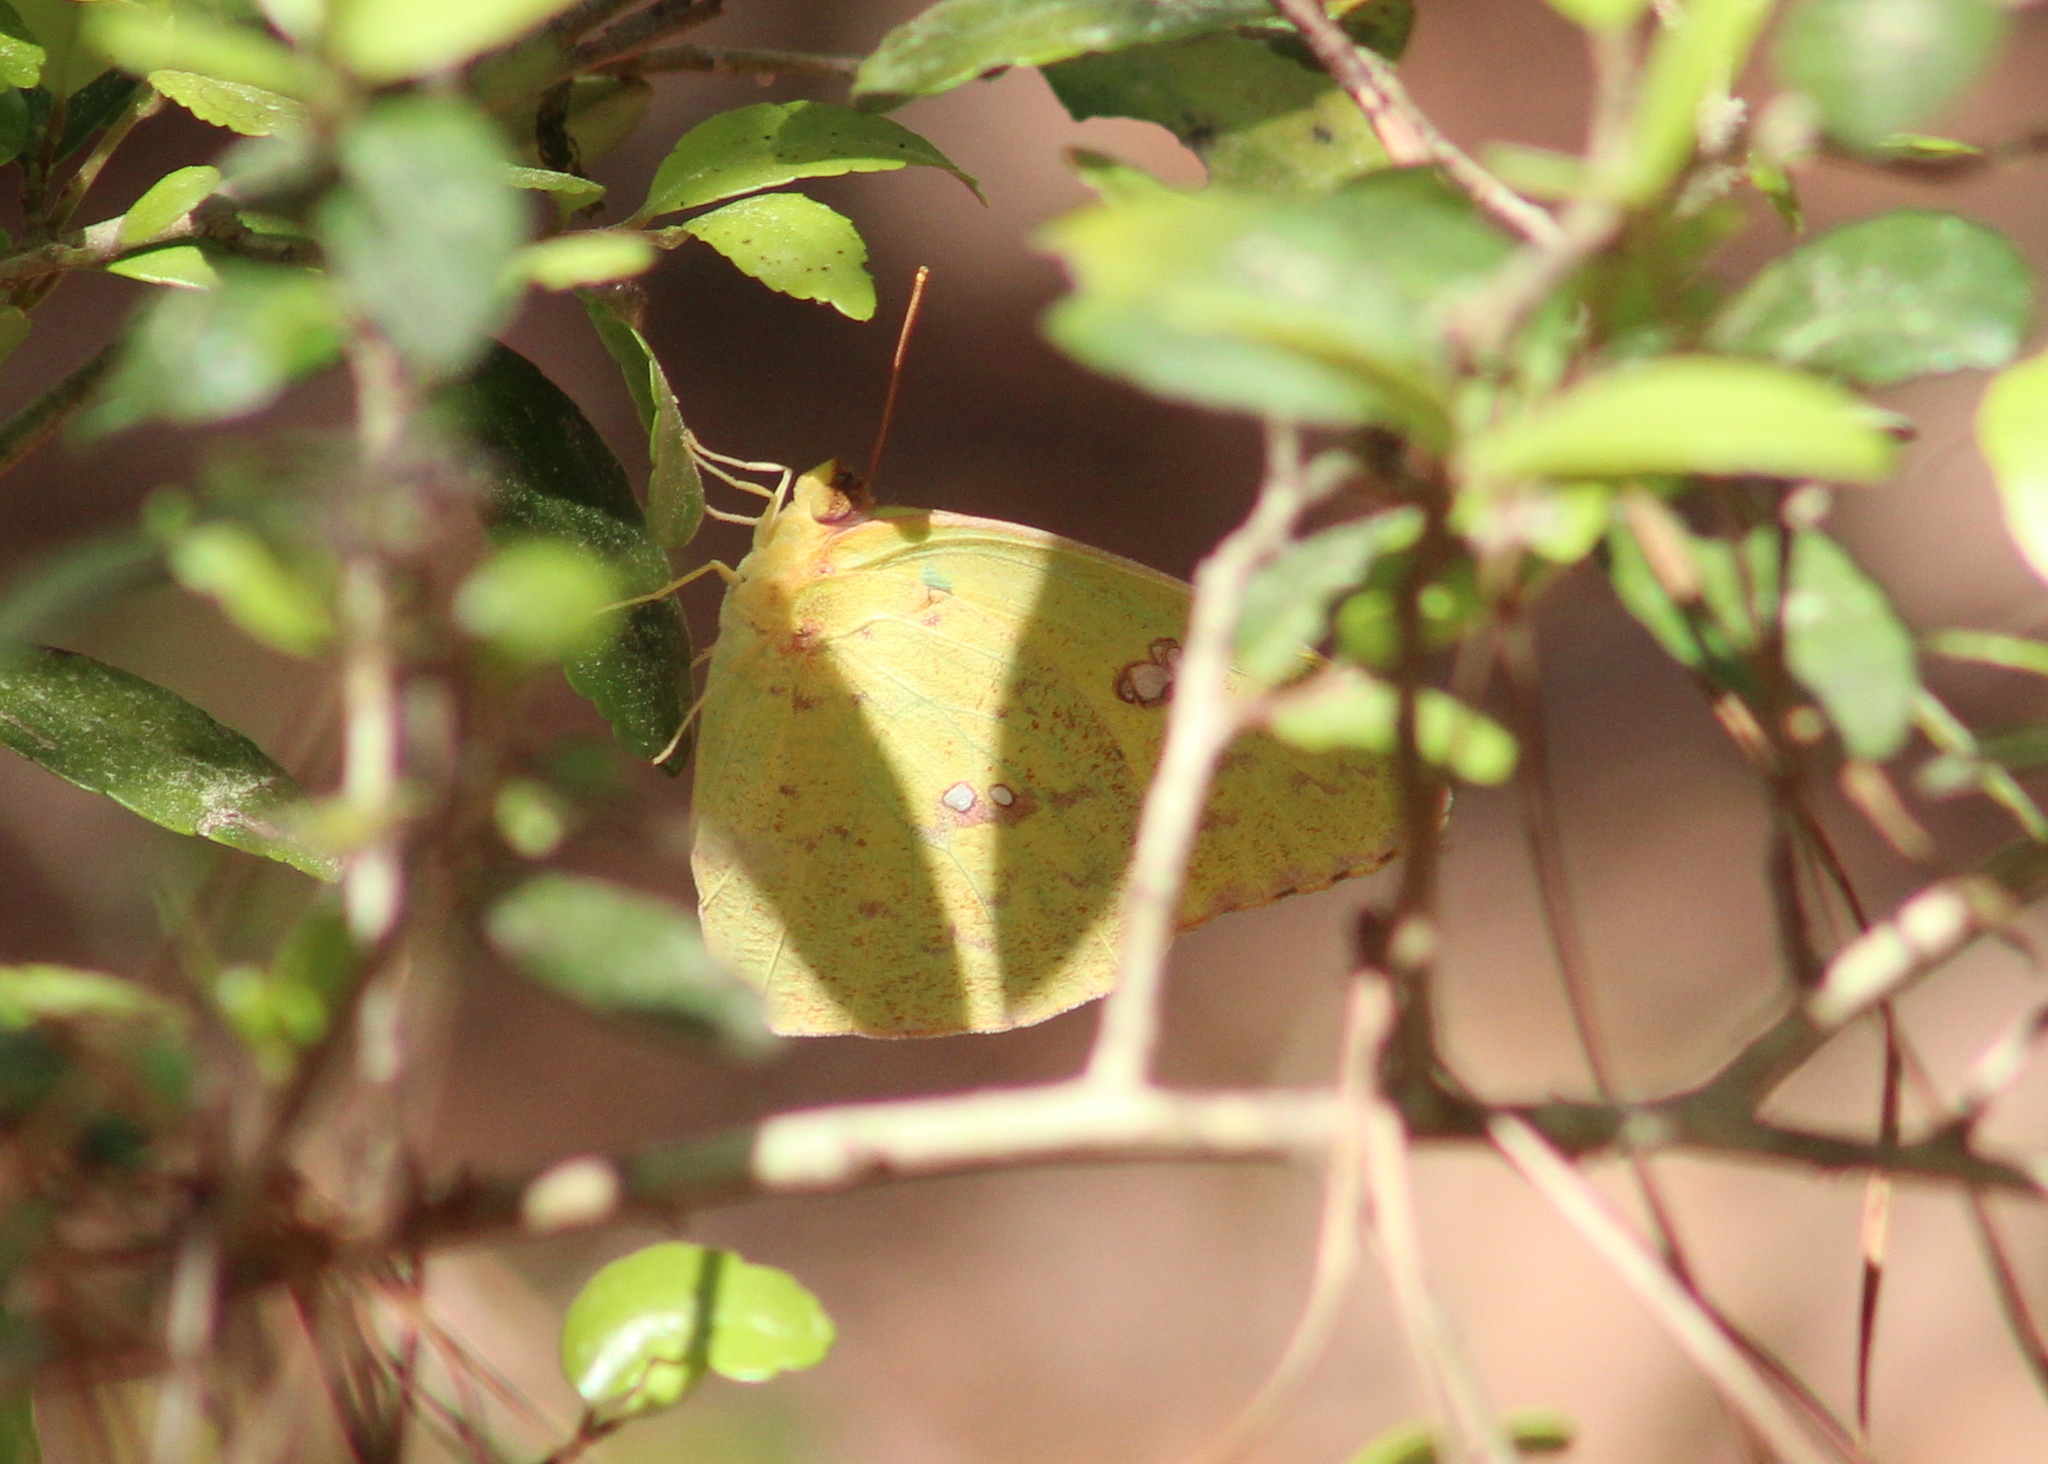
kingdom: Animalia
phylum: Arthropoda
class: Insecta
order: Lepidoptera
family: Pieridae
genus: Phoebis
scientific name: Phoebis sennae
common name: Cloudless sulphur
